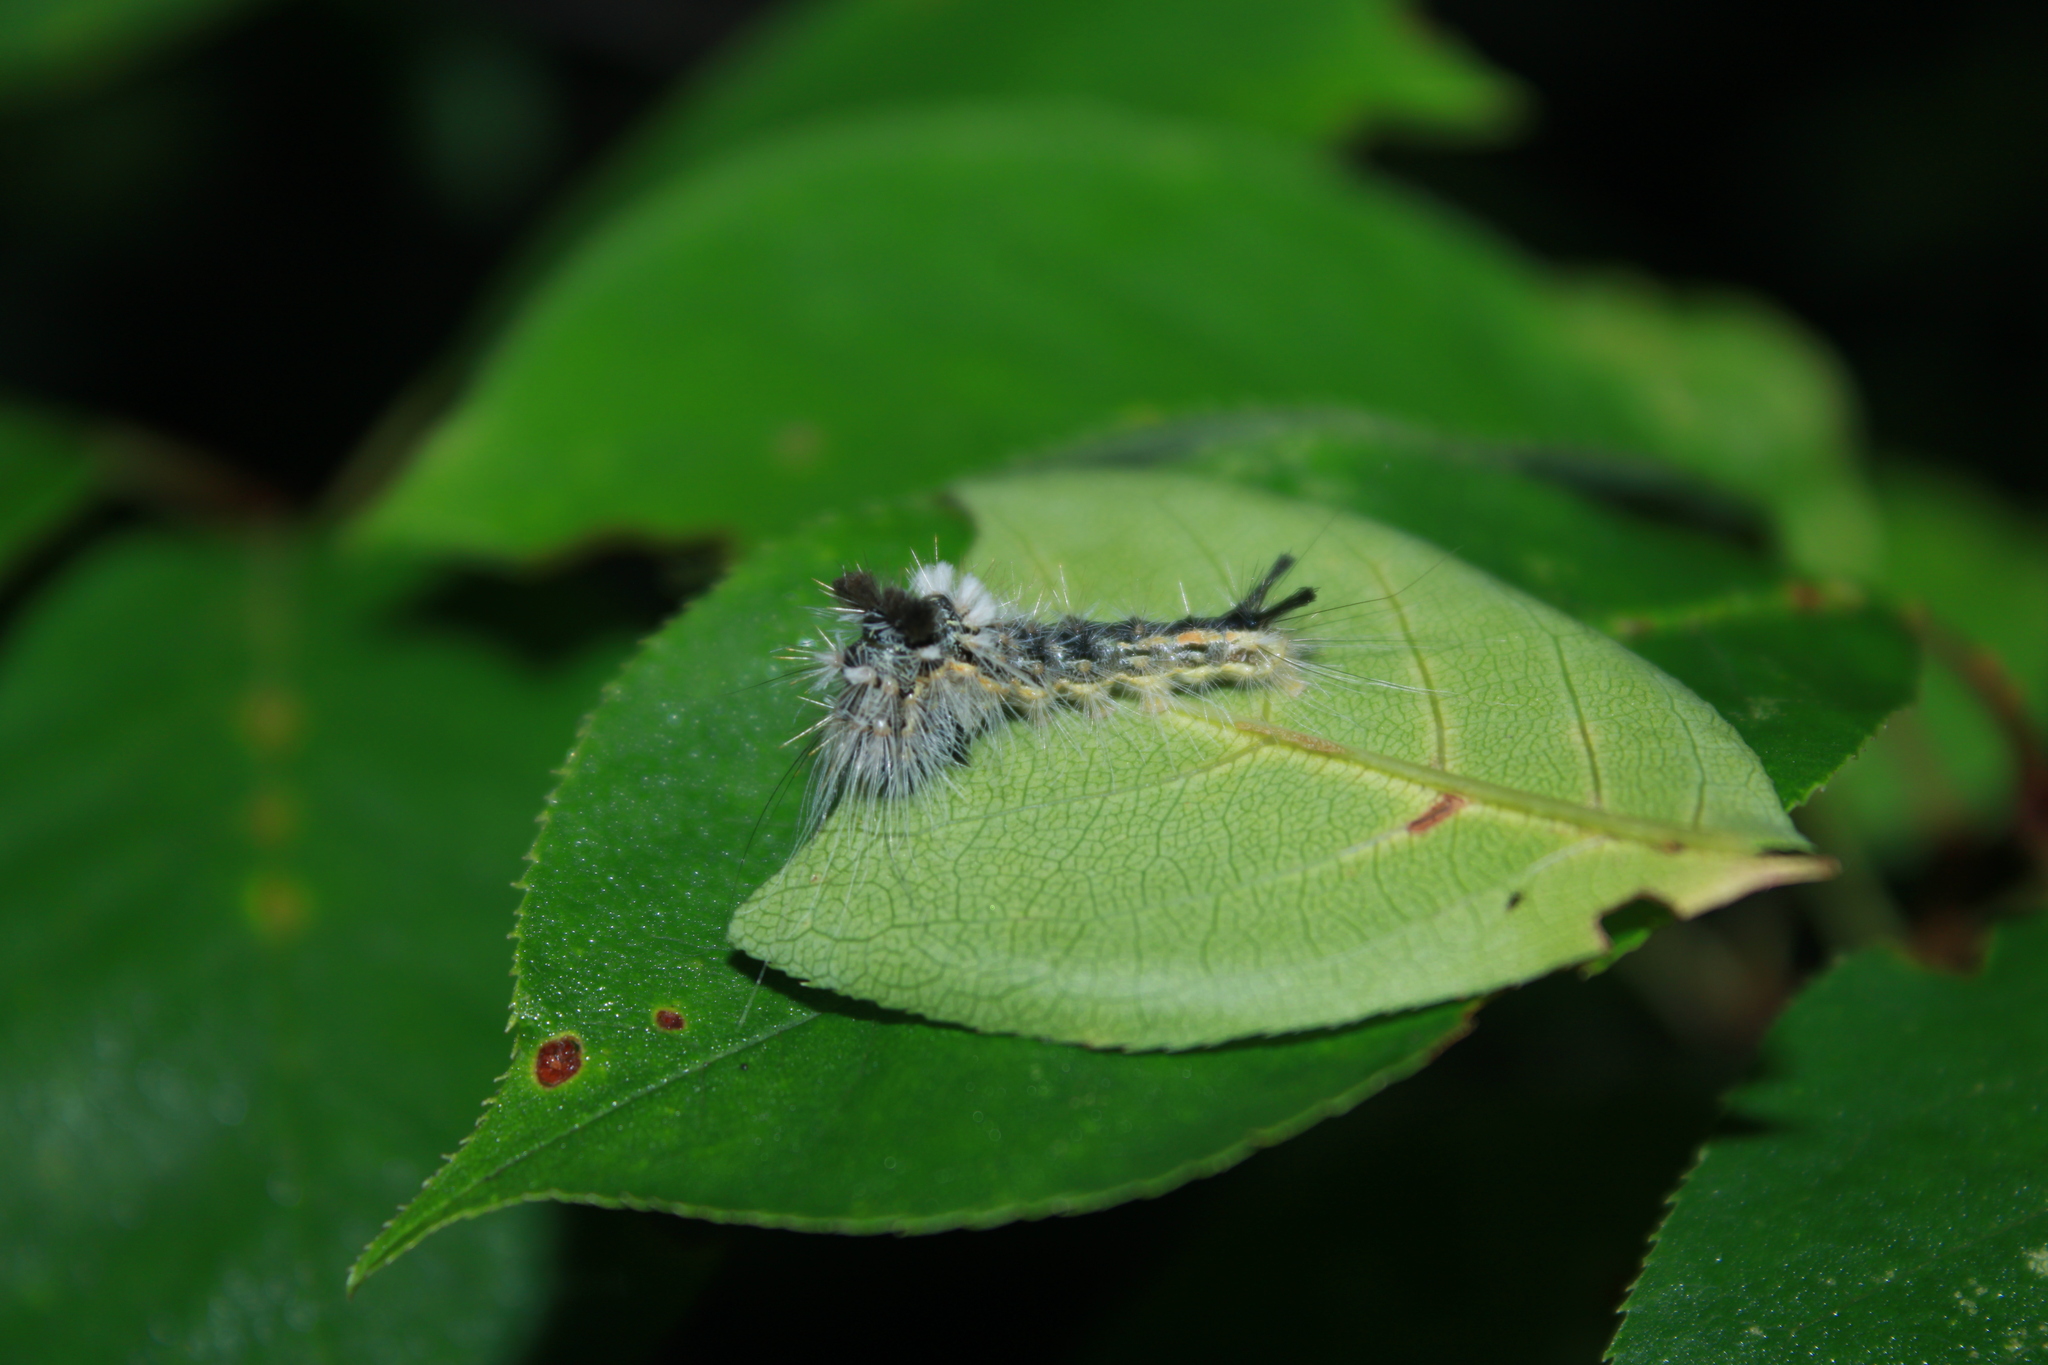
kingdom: Animalia
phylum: Arthropoda
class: Insecta
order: Lepidoptera
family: Noctuidae
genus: Acronicta
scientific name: Acronicta impleta
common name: Powdered dagger
